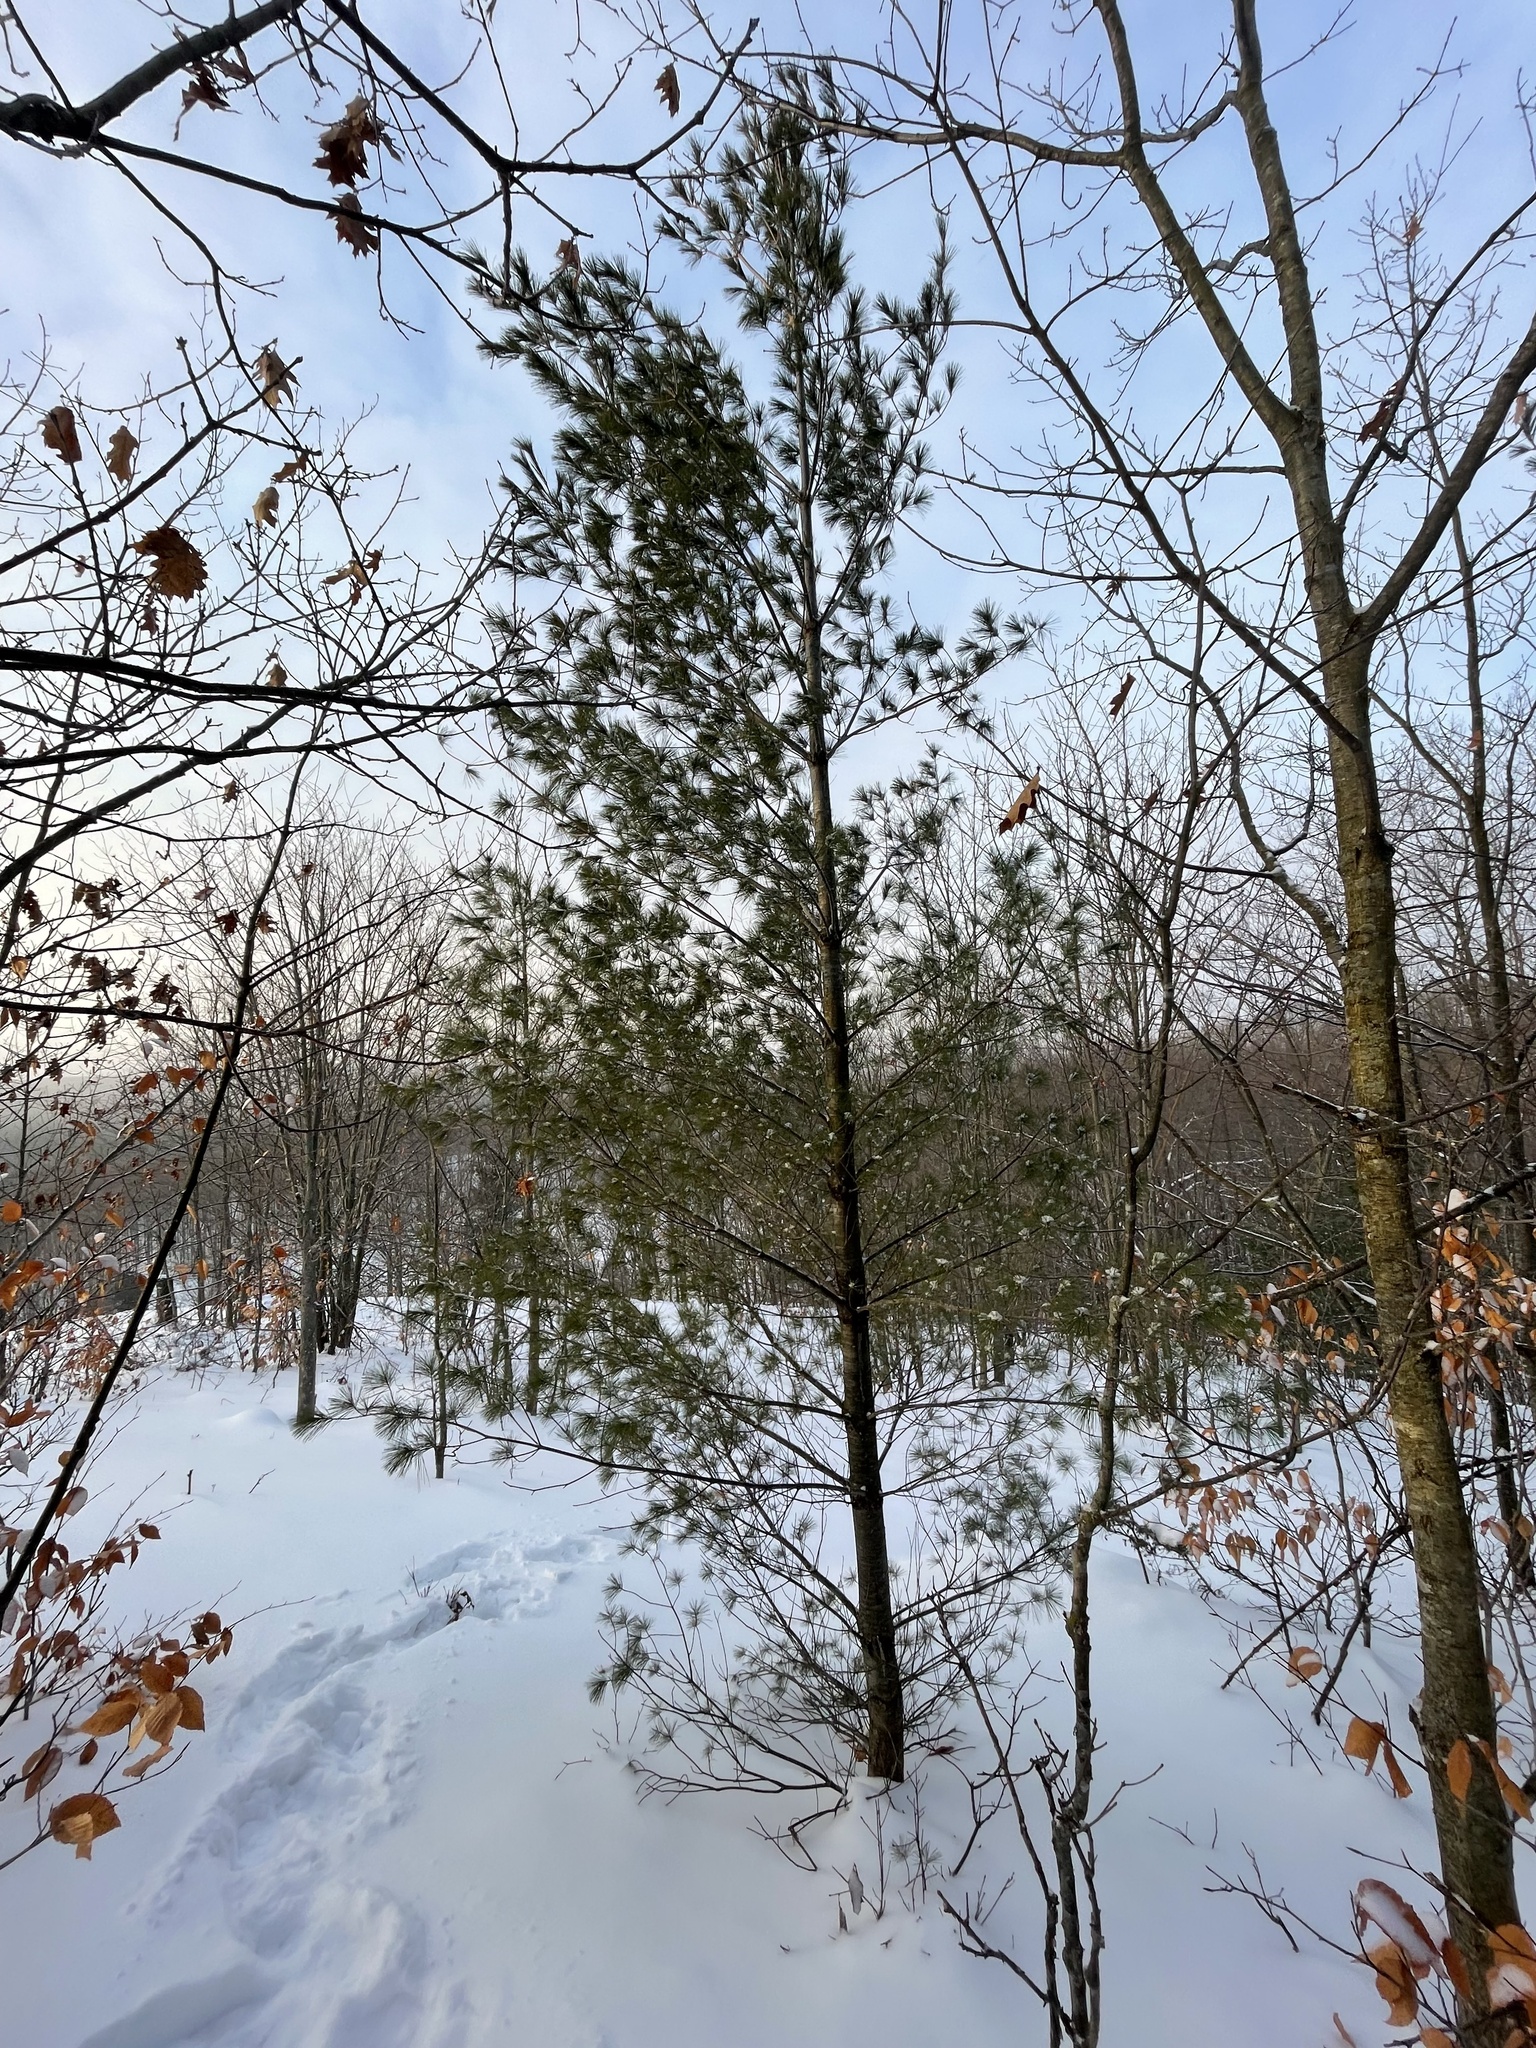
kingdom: Plantae
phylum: Tracheophyta
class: Pinopsida
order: Pinales
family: Pinaceae
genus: Pinus
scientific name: Pinus strobus
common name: Weymouth pine
